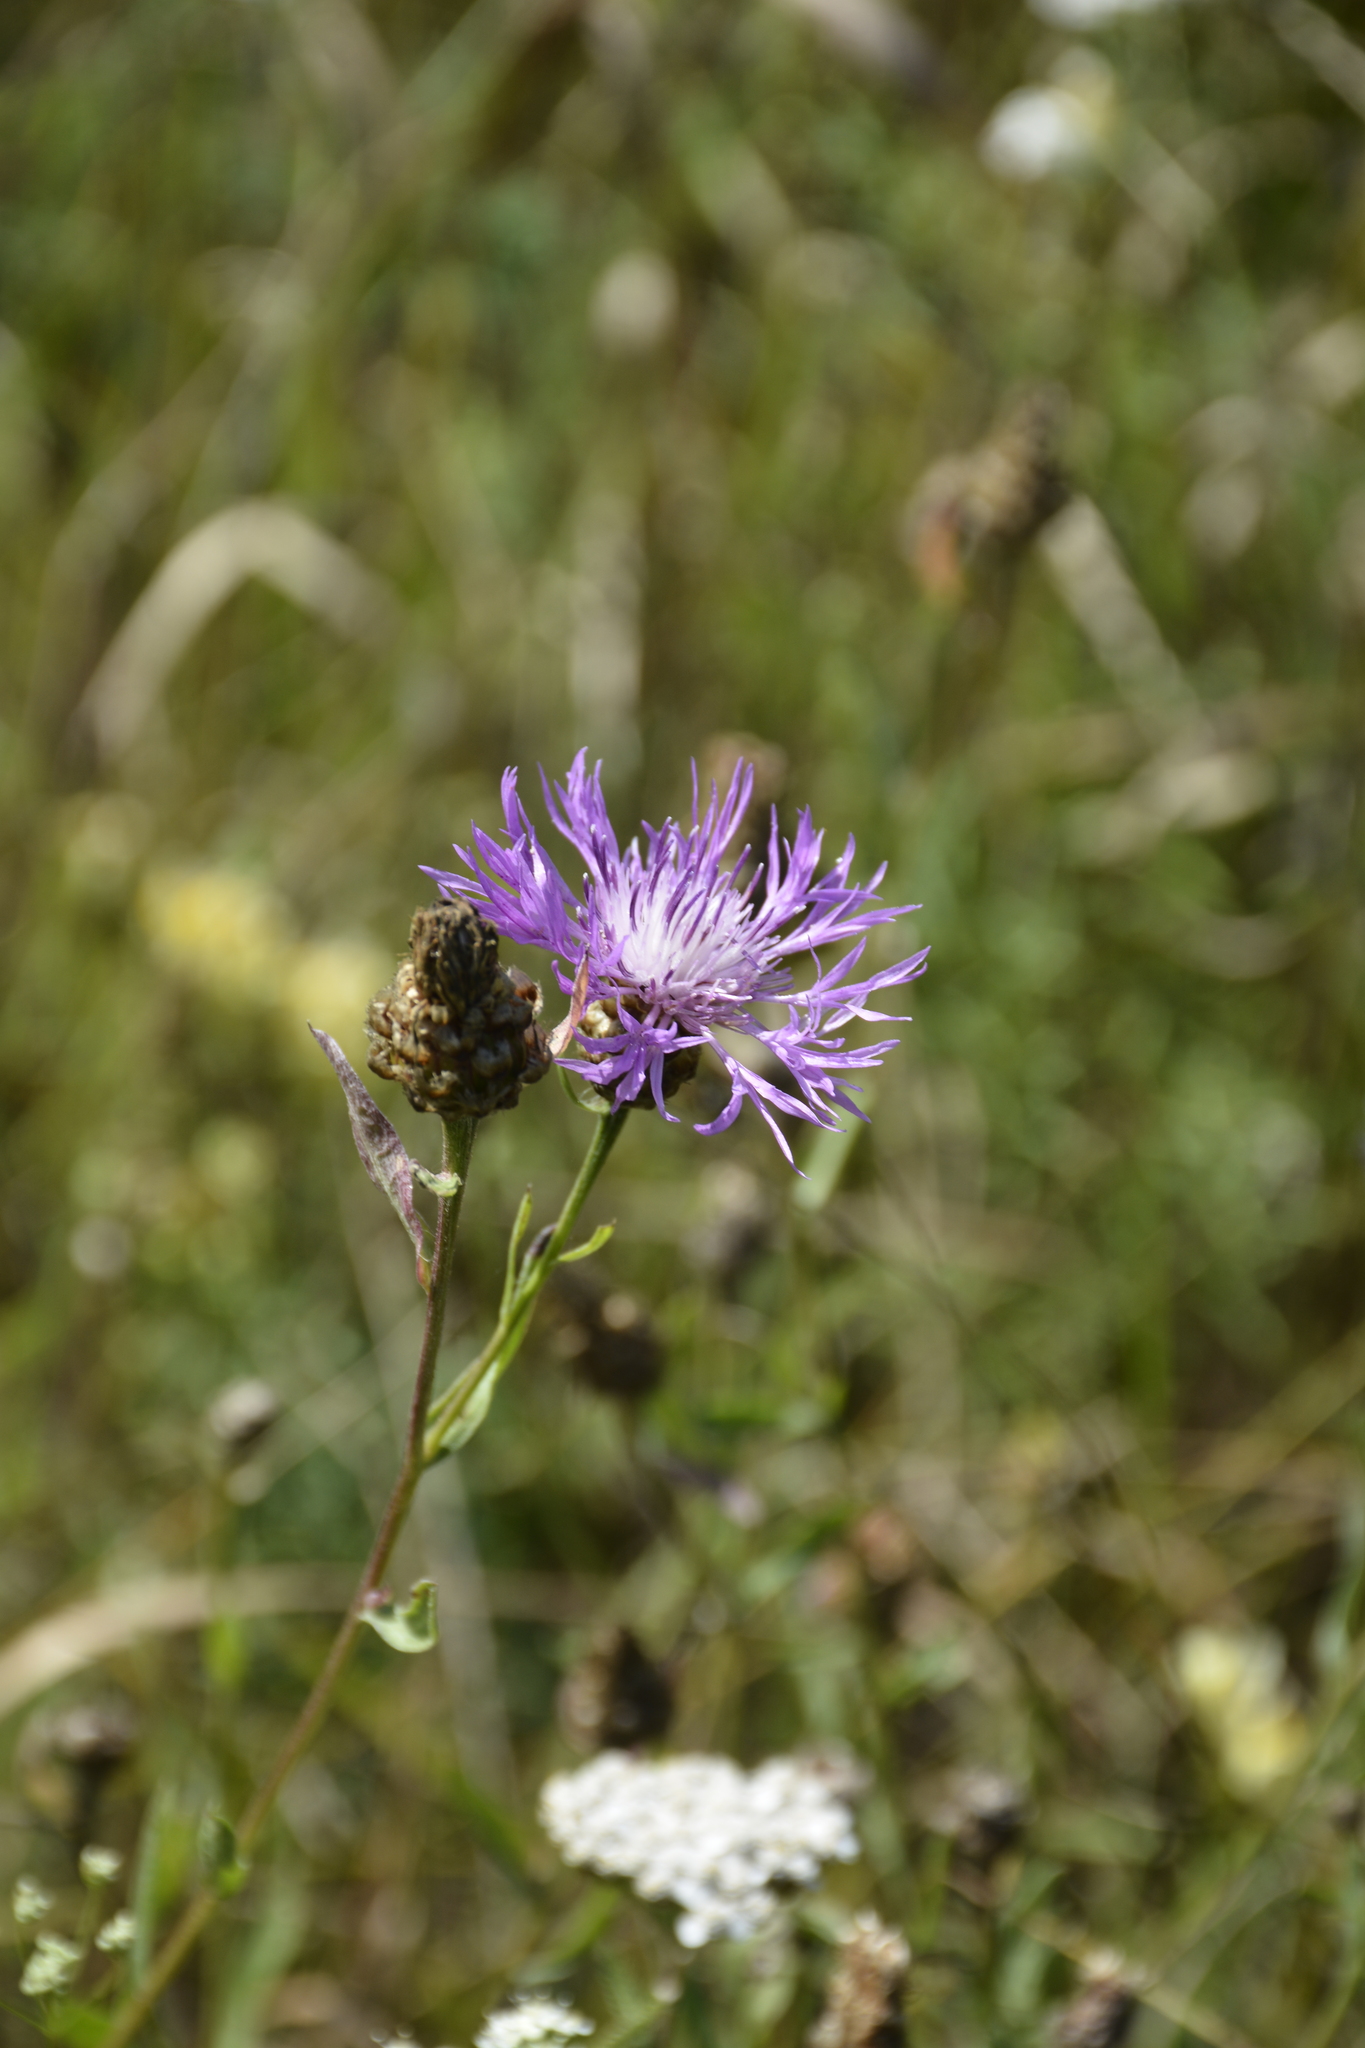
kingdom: Plantae
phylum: Tracheophyta
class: Magnoliopsida
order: Asterales
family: Asteraceae
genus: Centaurea
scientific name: Centaurea jacea
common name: Brown knapweed
